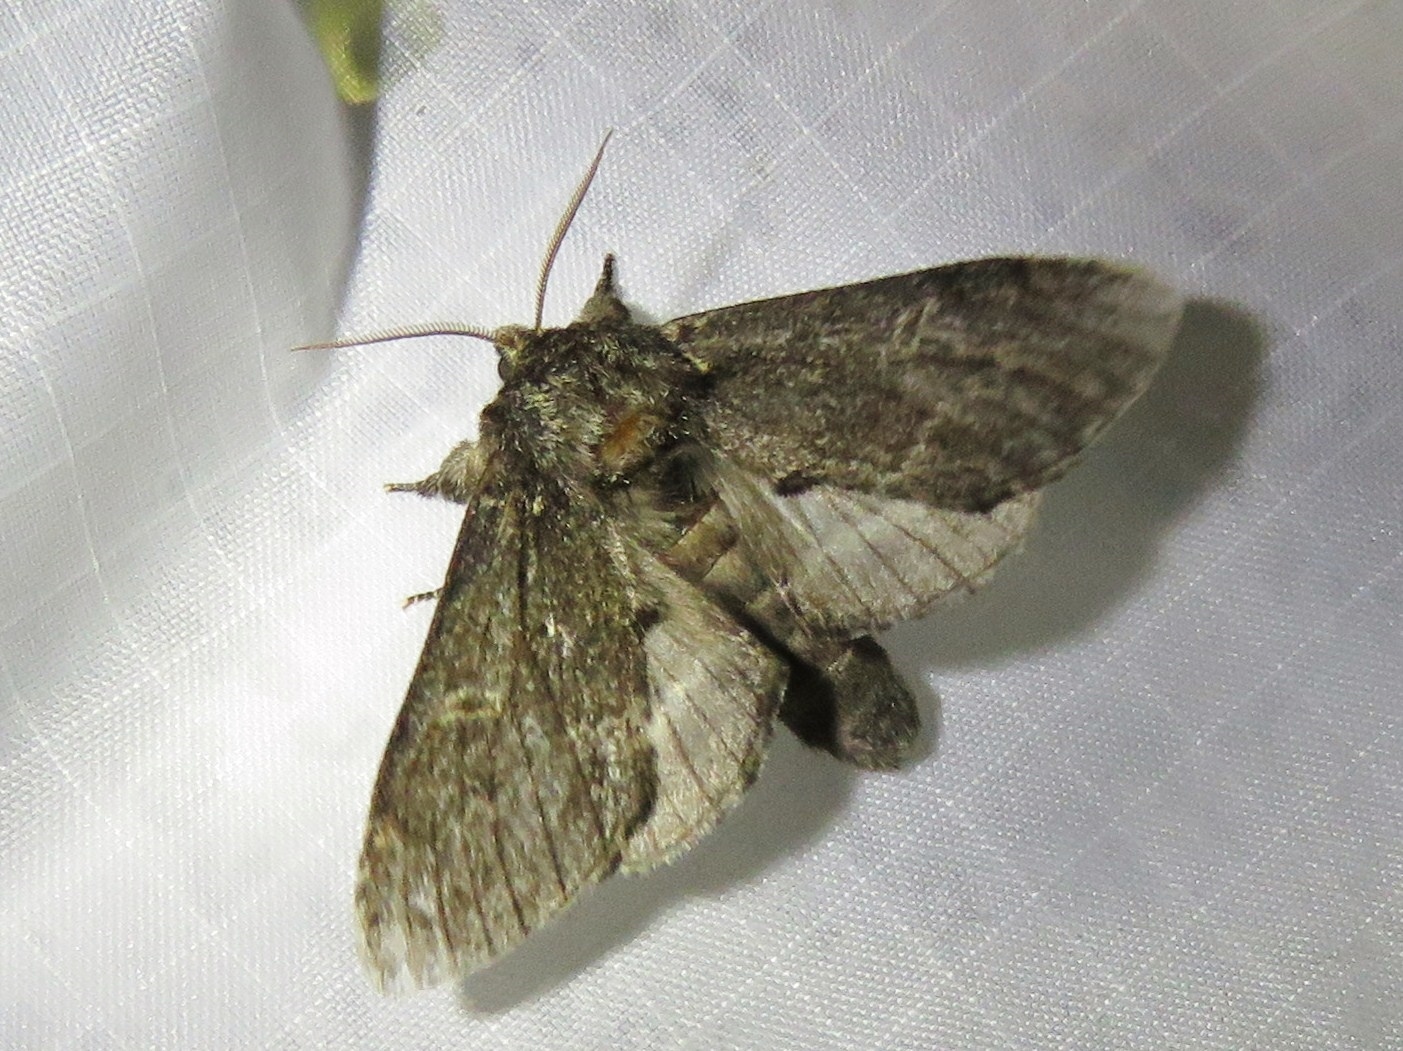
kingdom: Animalia
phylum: Arthropoda
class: Insecta
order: Lepidoptera
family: Notodontidae
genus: Notodonta
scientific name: Notodonta torva
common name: Large dark prominent
